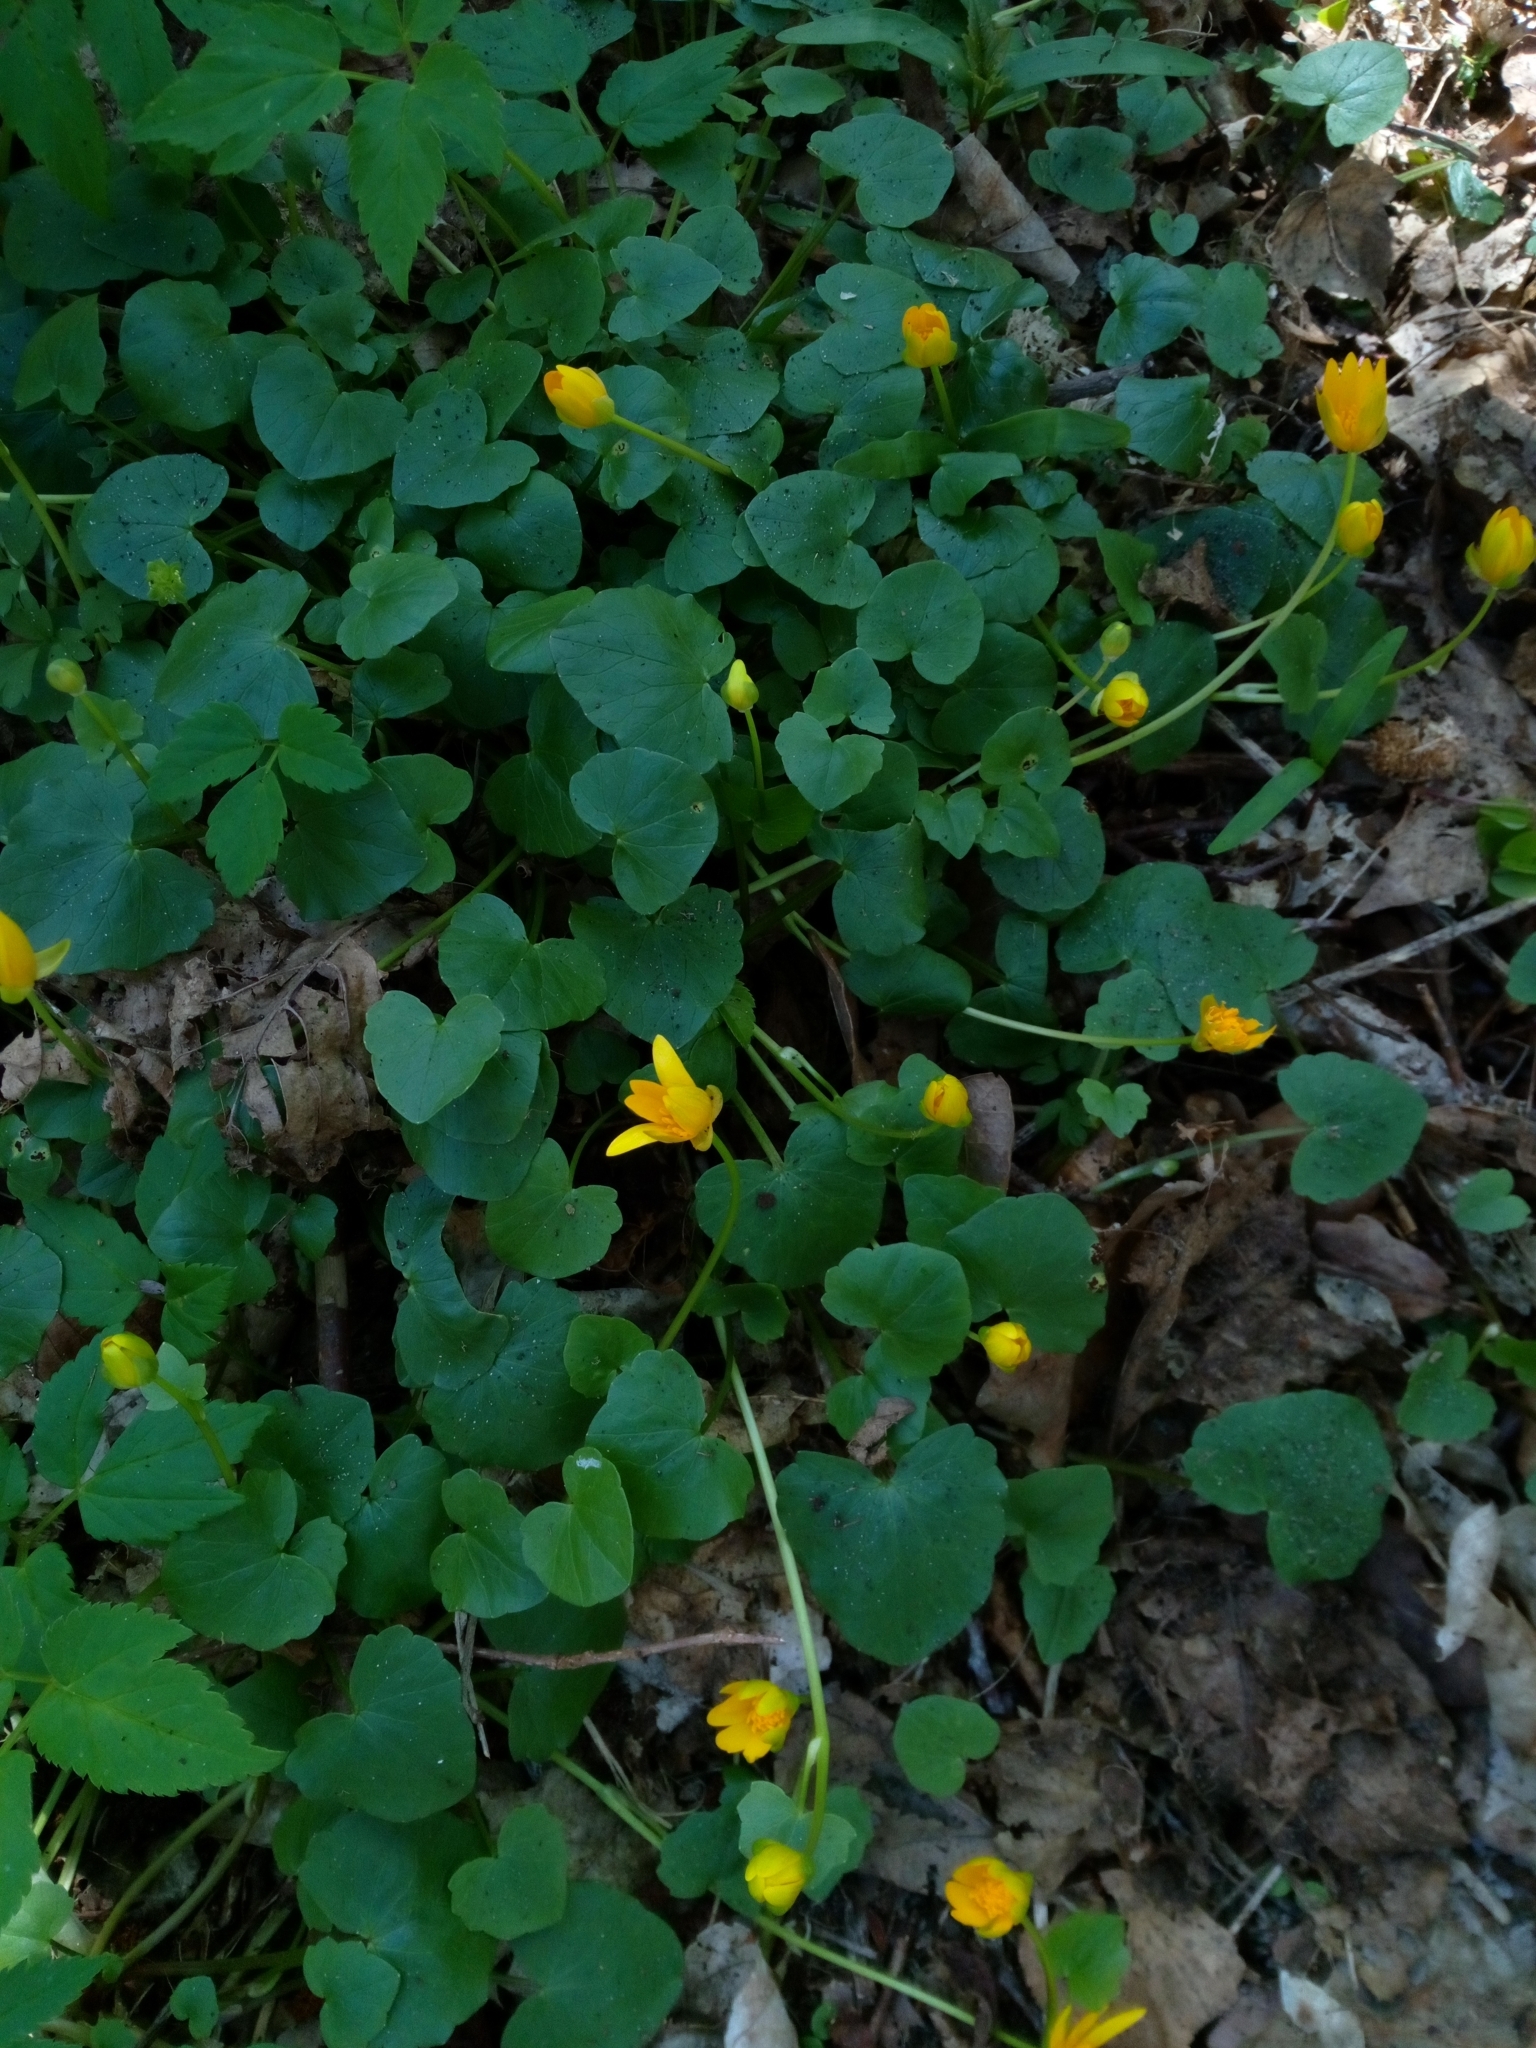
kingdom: Plantae
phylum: Tracheophyta
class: Magnoliopsida
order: Ranunculales
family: Ranunculaceae
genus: Ficaria
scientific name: Ficaria verna
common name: Lesser celandine
